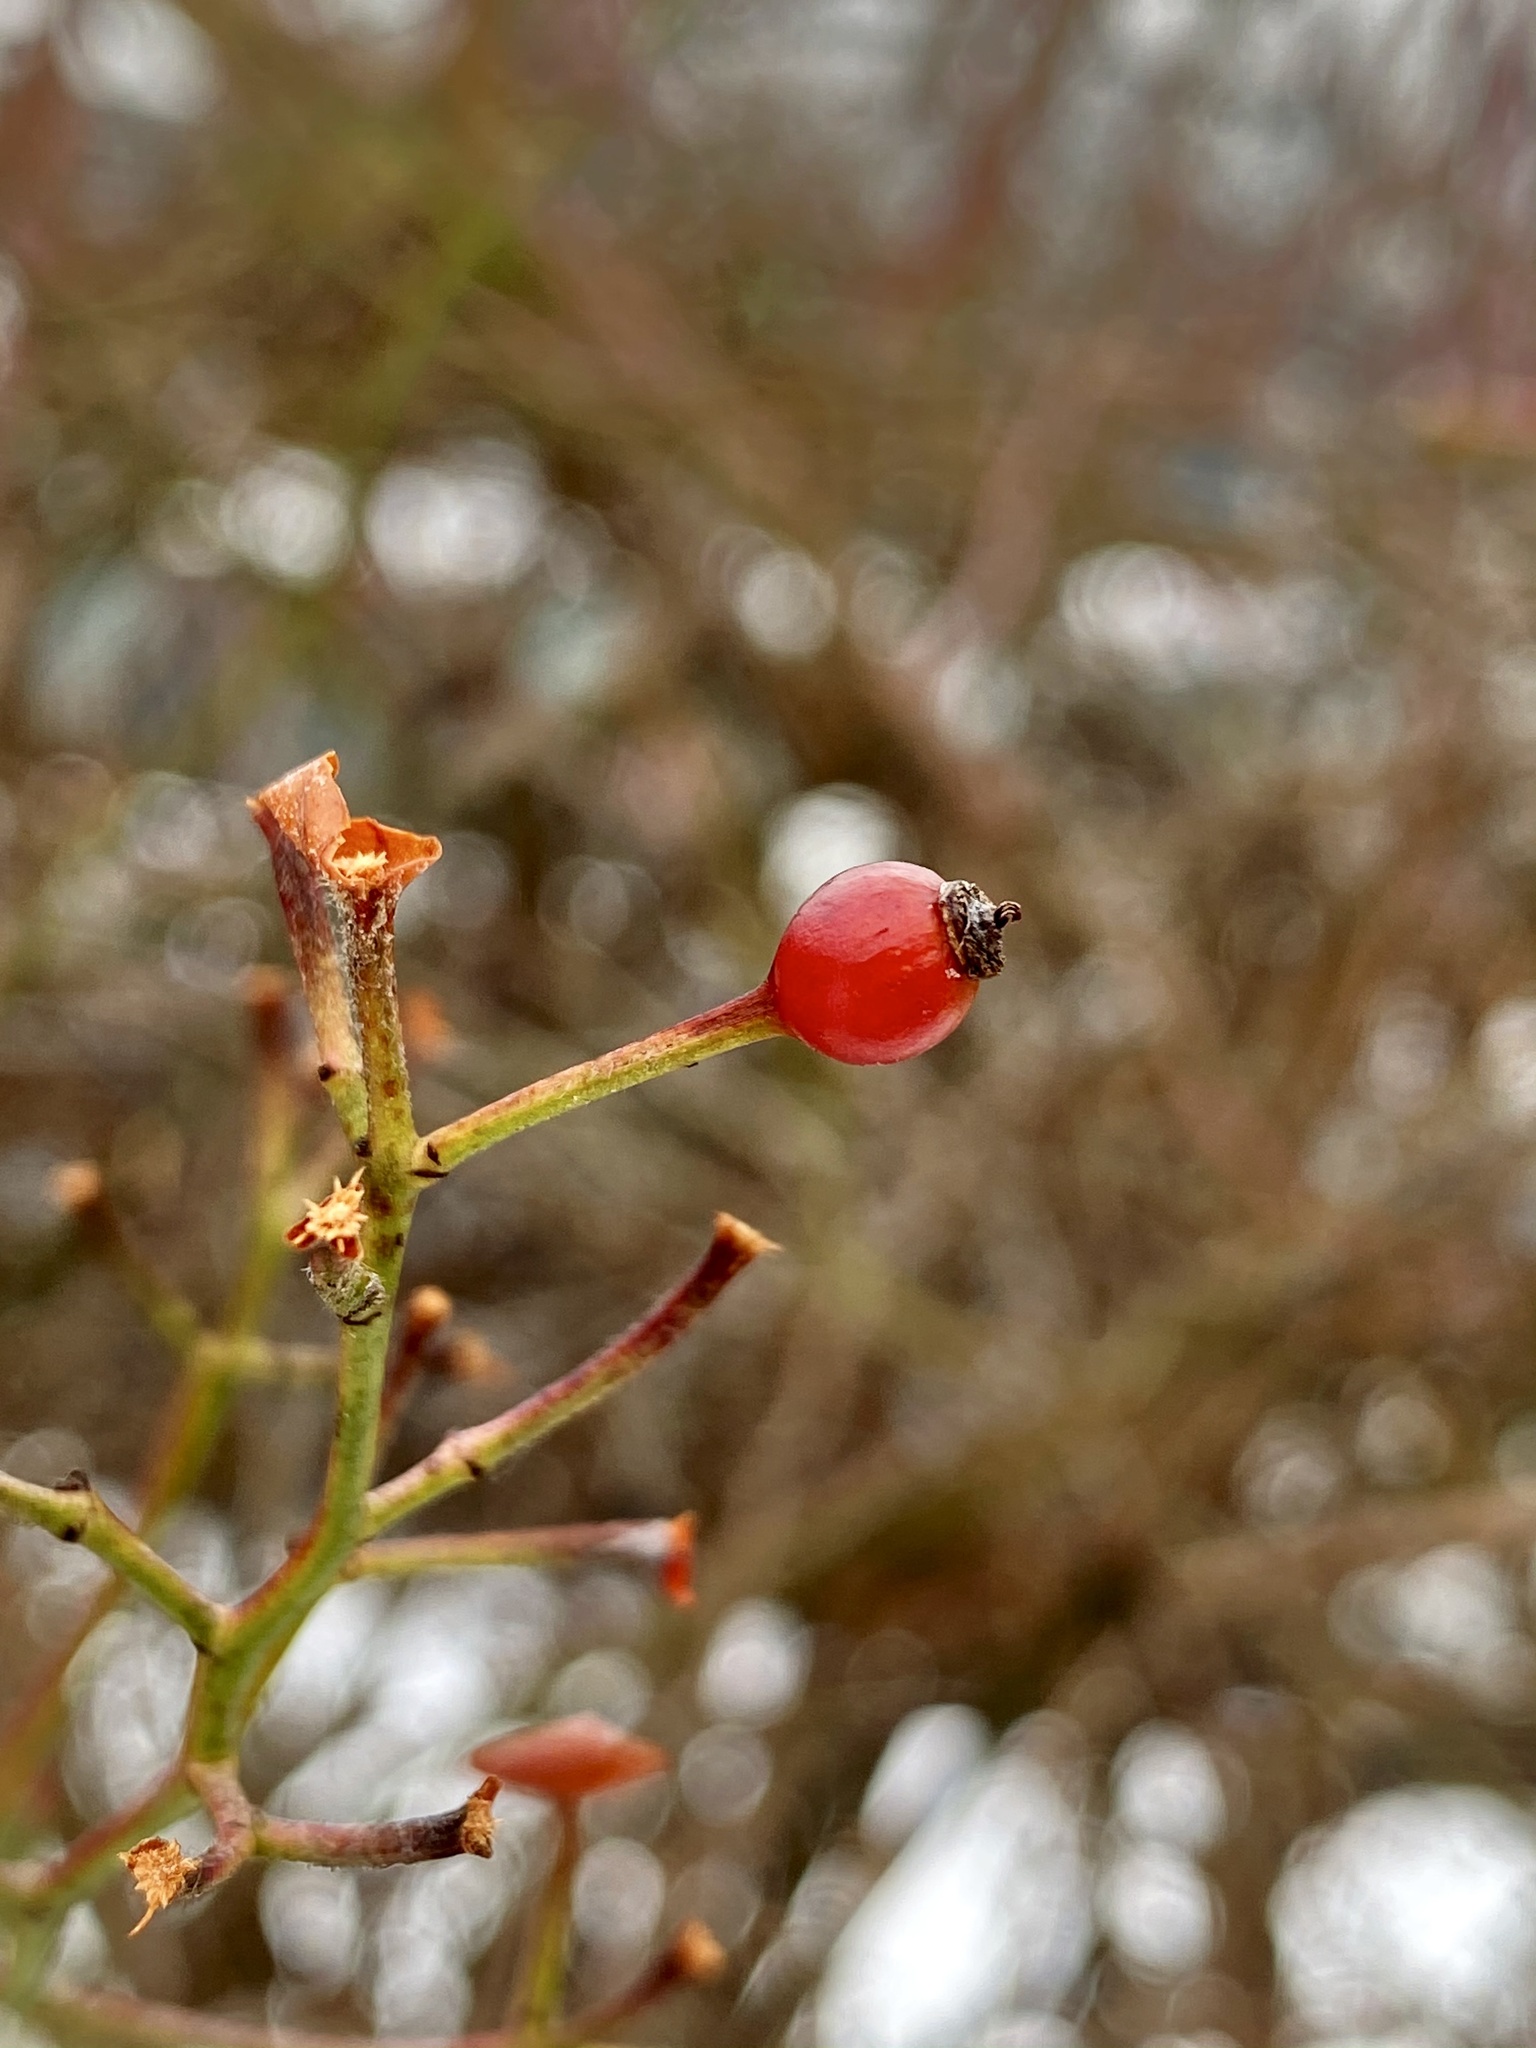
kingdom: Plantae
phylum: Tracheophyta
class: Magnoliopsida
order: Rosales
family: Rosaceae
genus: Rosa
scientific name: Rosa multiflora
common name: Multiflora rose
